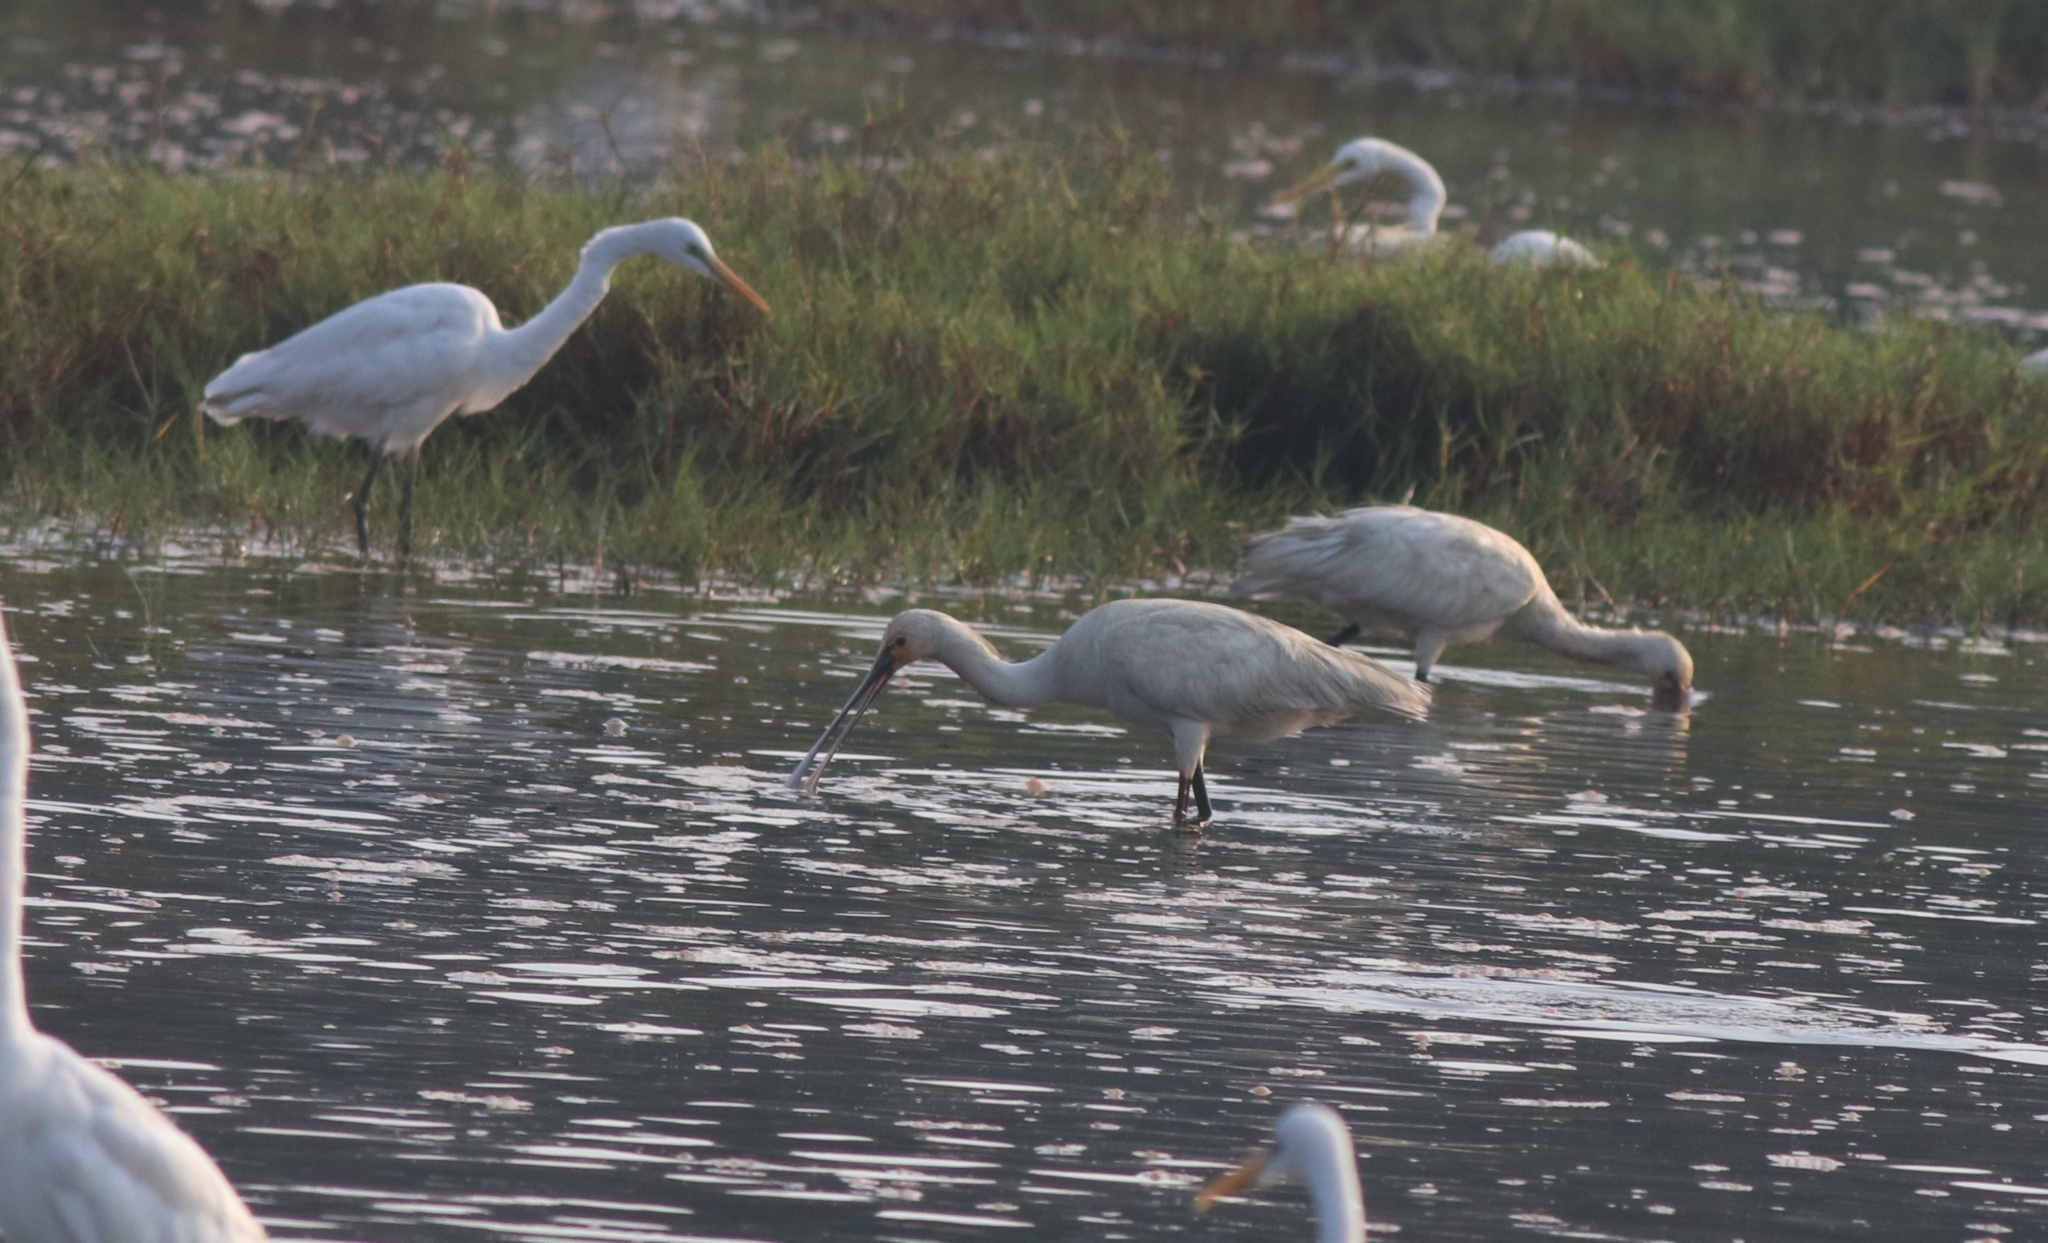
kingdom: Animalia
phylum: Chordata
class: Aves
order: Pelecaniformes
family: Threskiornithidae
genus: Platalea
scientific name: Platalea leucorodia
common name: Eurasian spoonbill
